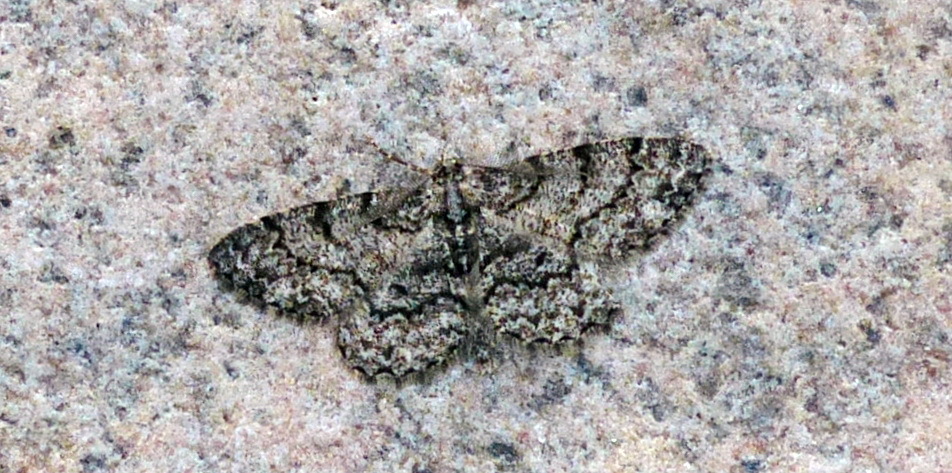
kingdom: Animalia
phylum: Arthropoda
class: Insecta
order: Lepidoptera
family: Geometridae
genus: Protoboarmia
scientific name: Protoboarmia porcelaria
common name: Porcelain gray
